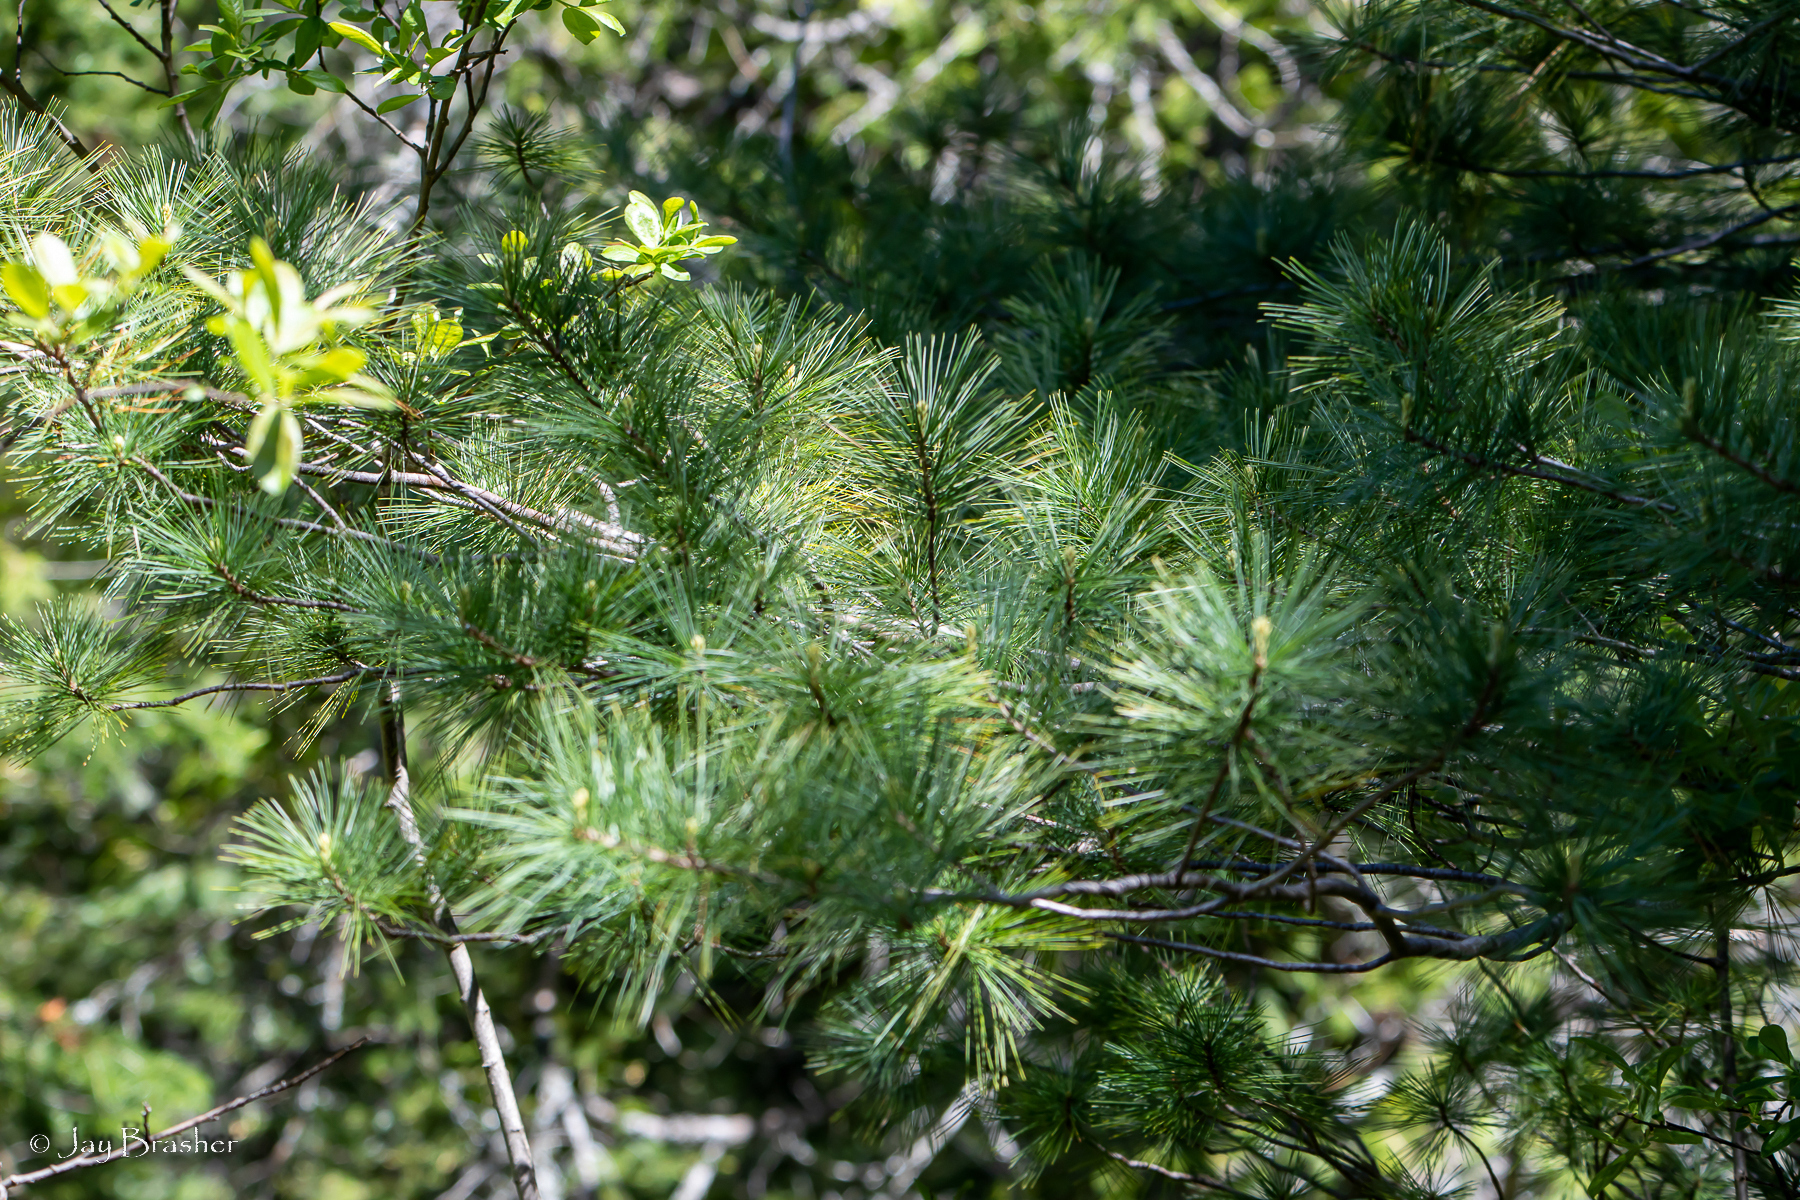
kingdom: Plantae
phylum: Tracheophyta
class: Pinopsida
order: Pinales
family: Pinaceae
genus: Pinus
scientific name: Pinus strobus
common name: Weymouth pine
